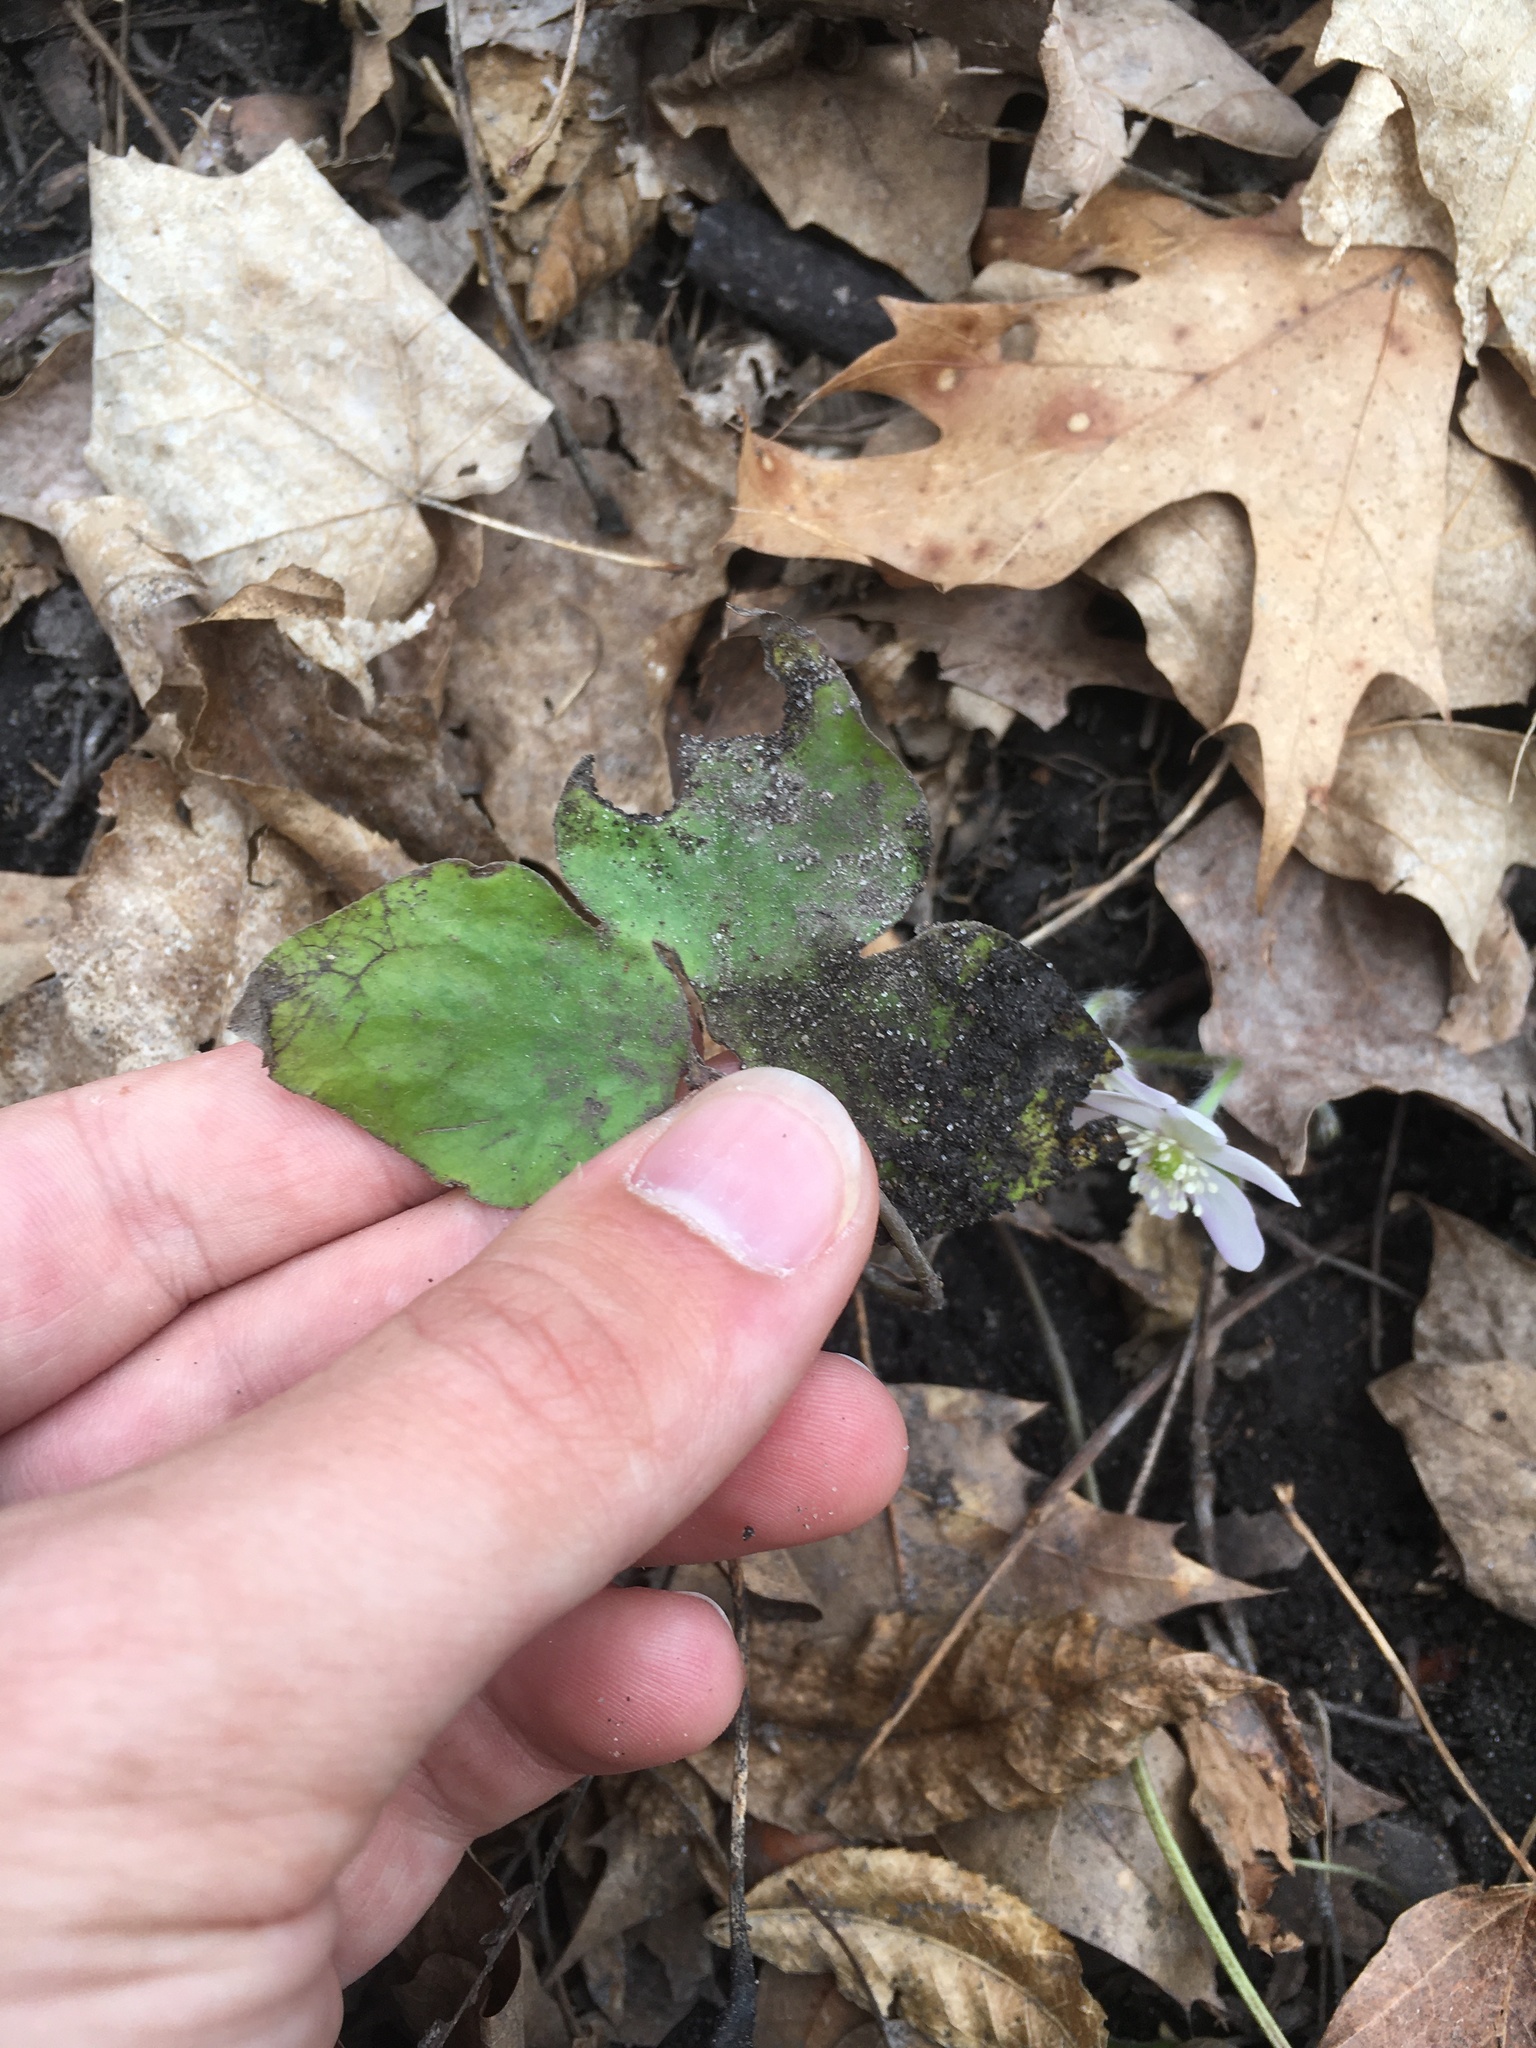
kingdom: Plantae
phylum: Tracheophyta
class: Magnoliopsida
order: Ranunculales
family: Ranunculaceae
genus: Hepatica
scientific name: Hepatica acutiloba
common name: Sharp-lobed hepatica
